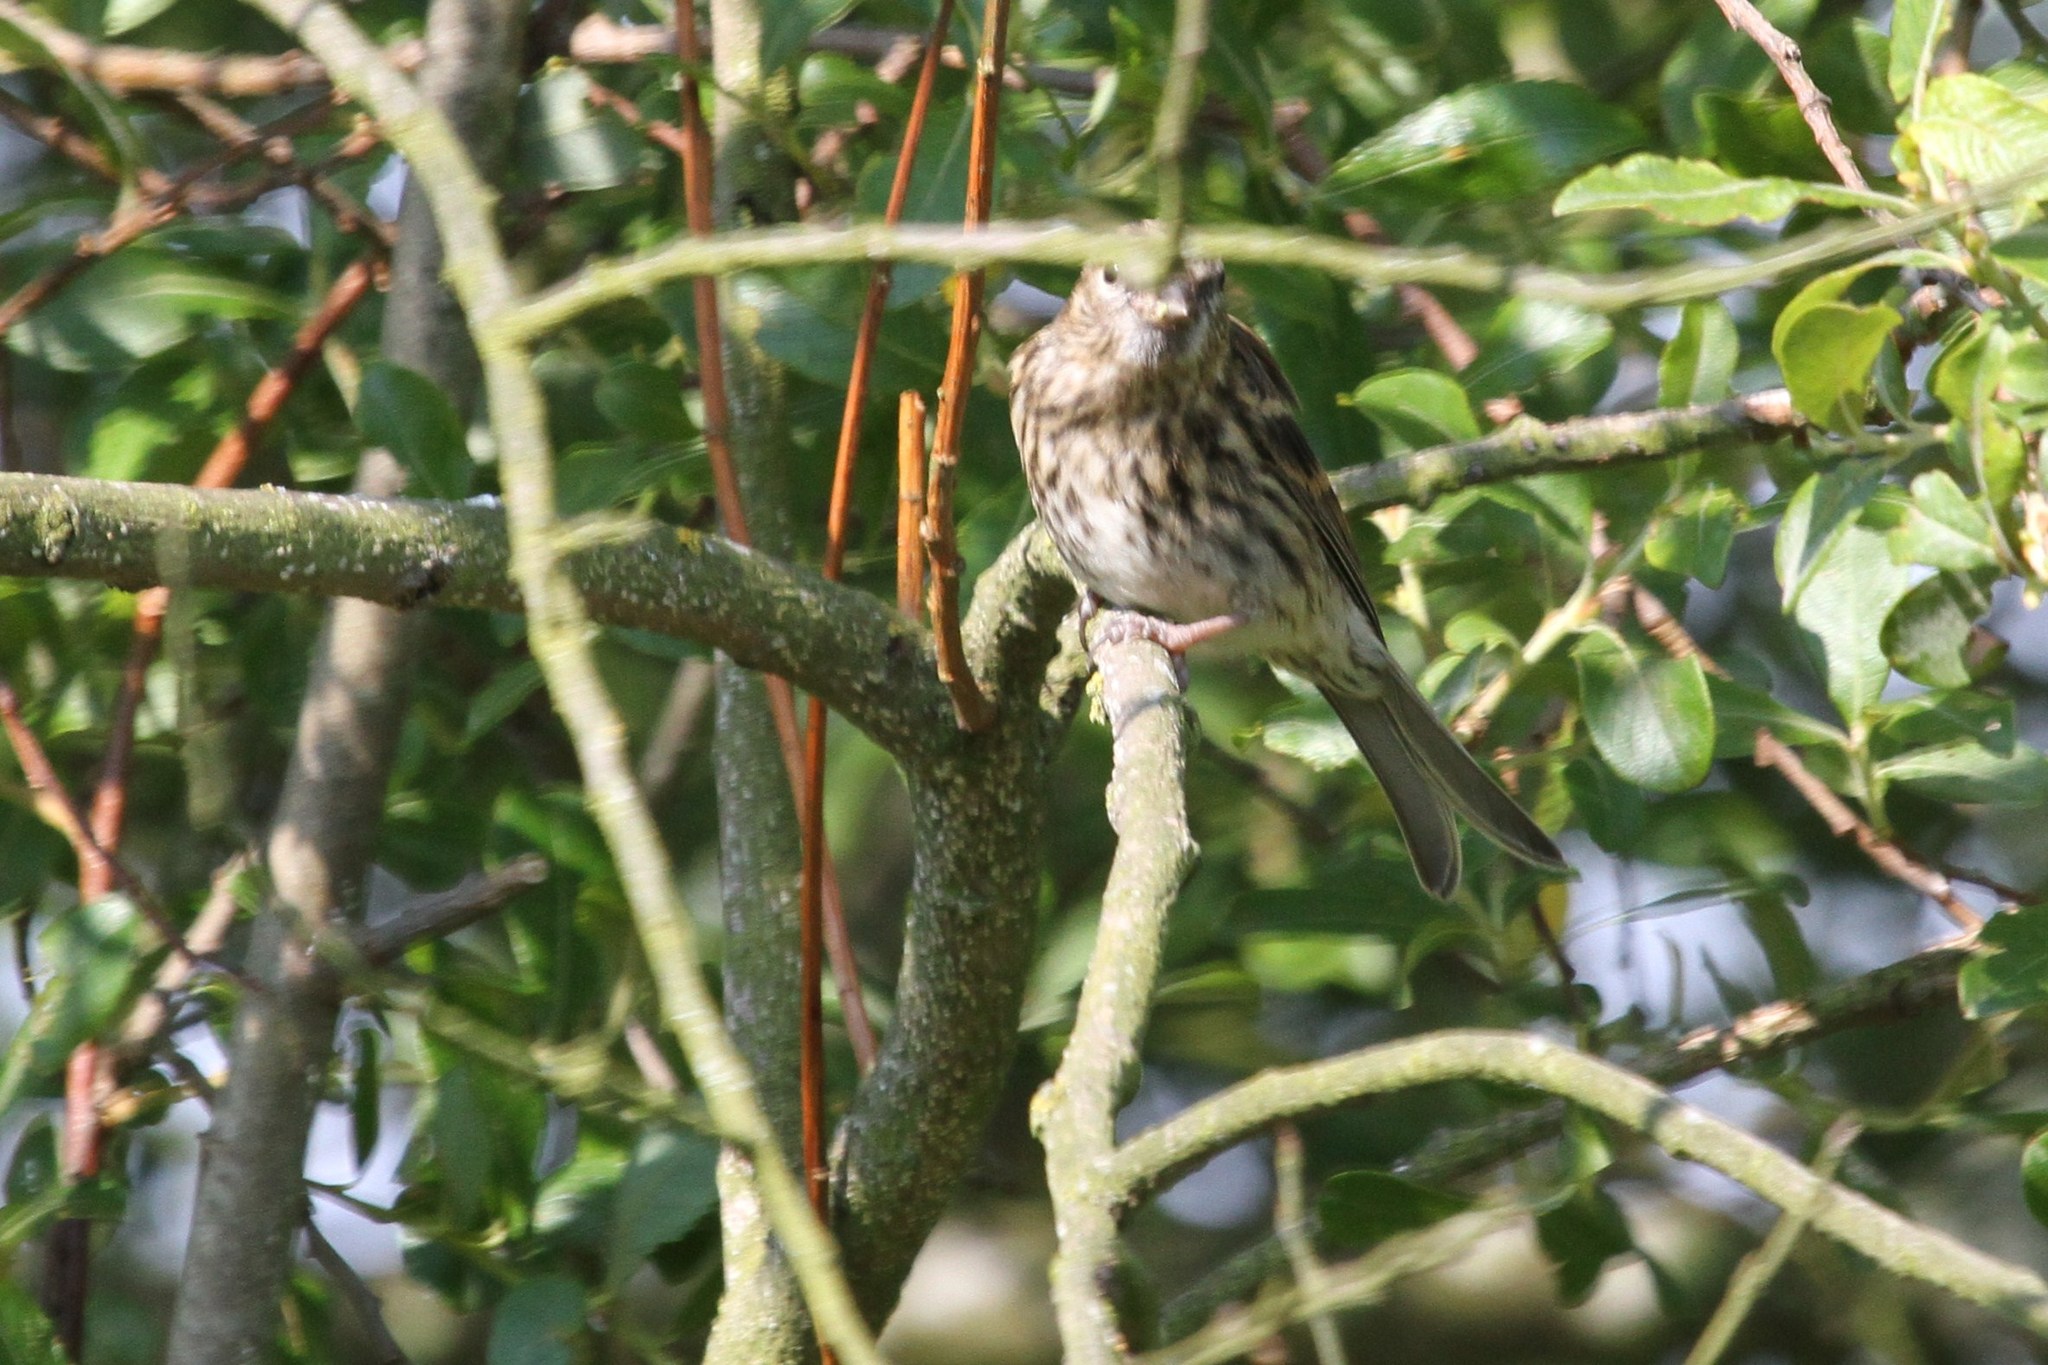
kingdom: Animalia
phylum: Chordata
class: Aves
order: Passeriformes
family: Fringillidae
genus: Linaria
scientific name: Linaria flavirostris
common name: Twite
